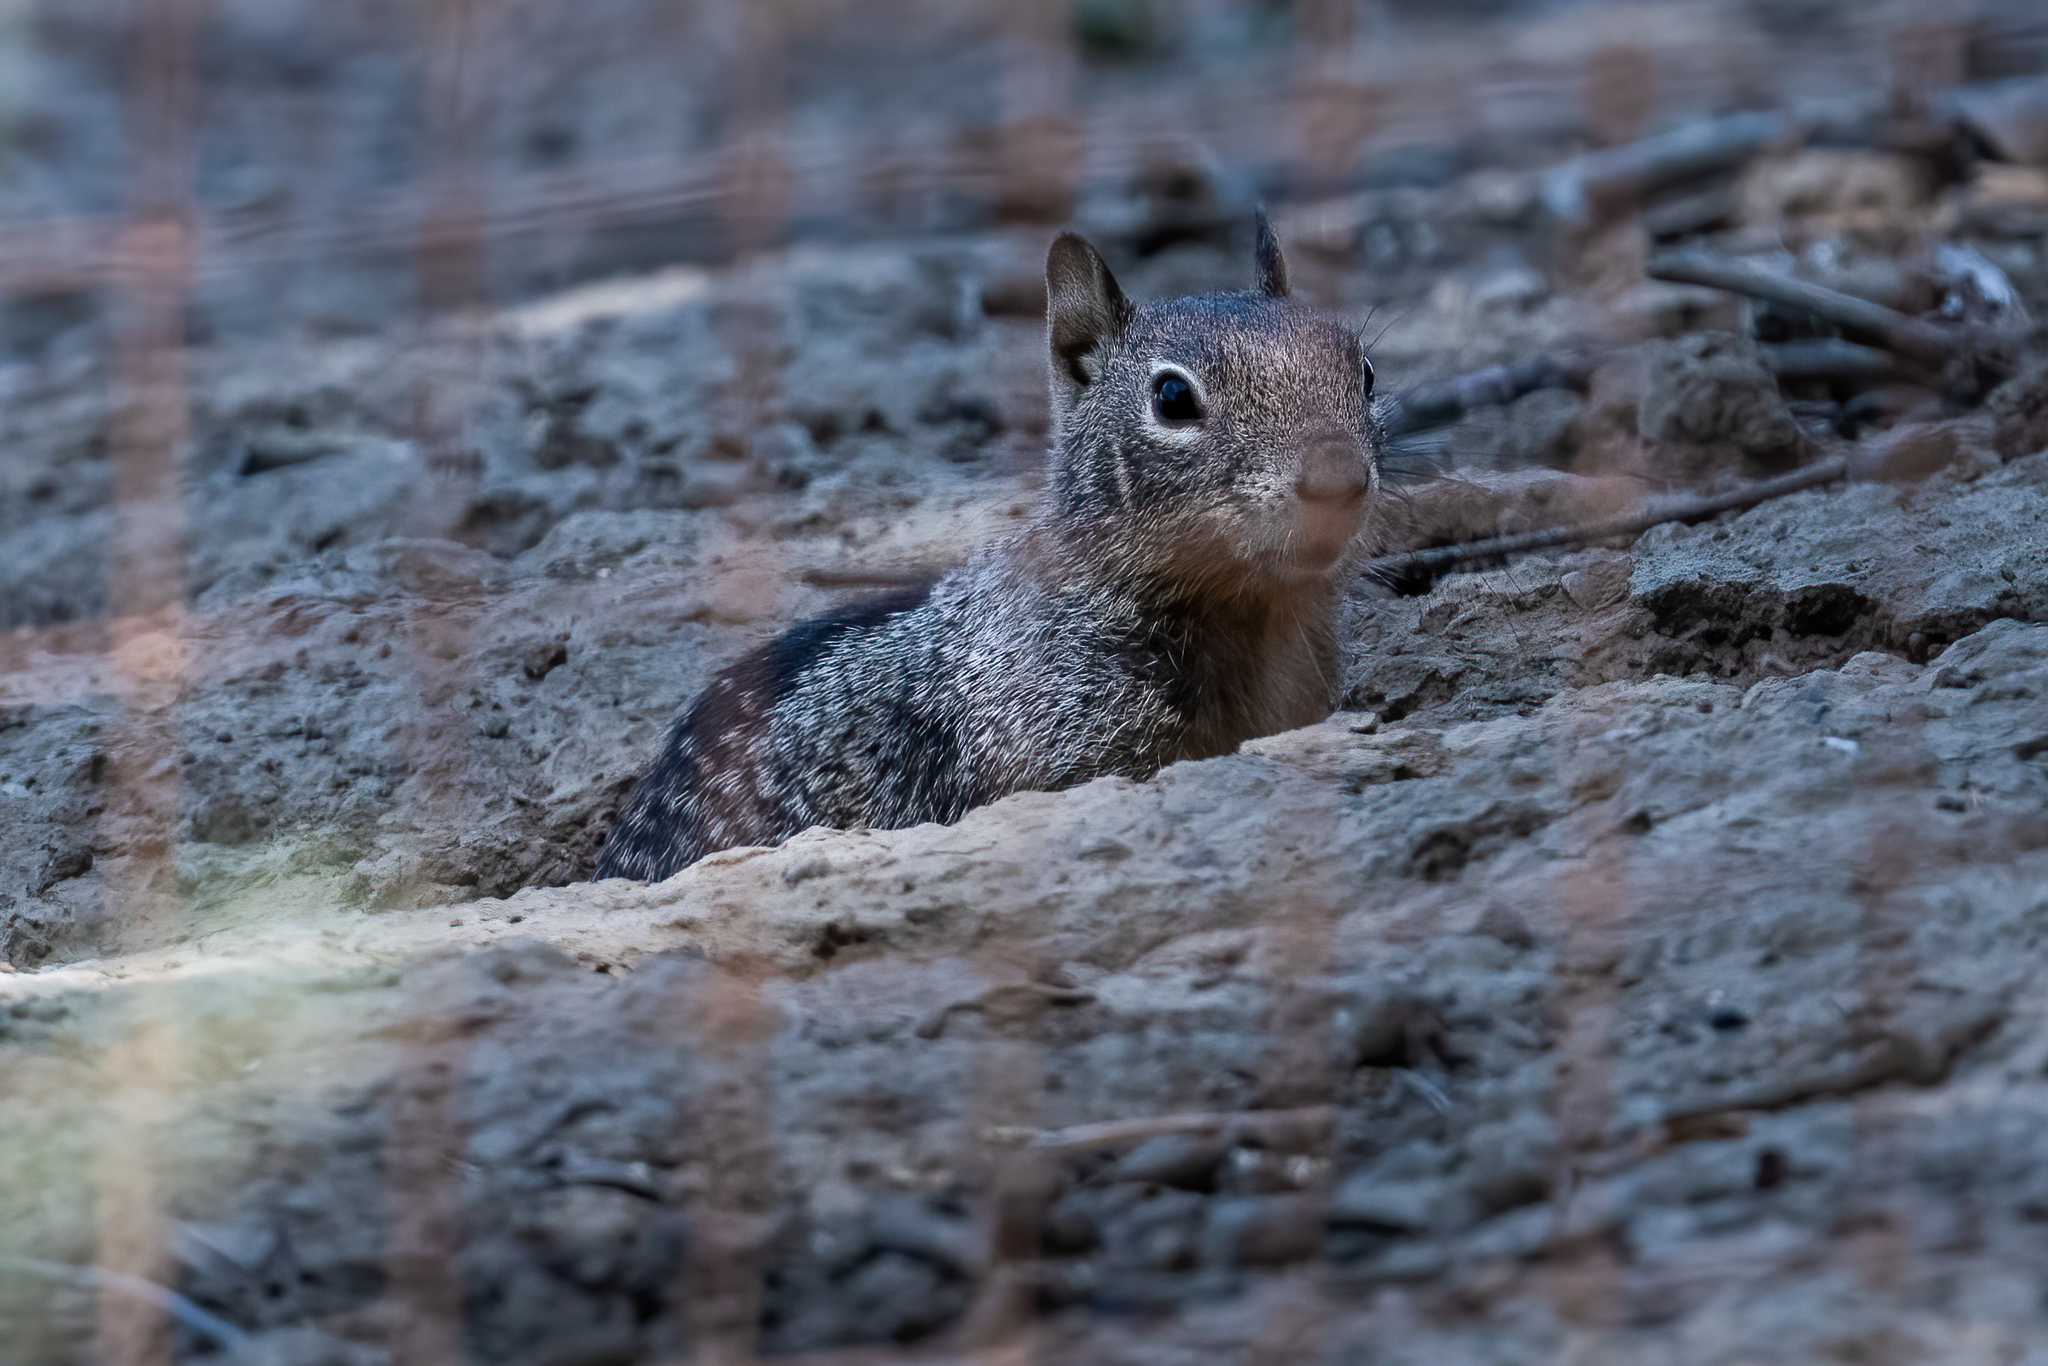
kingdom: Animalia
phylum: Chordata
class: Mammalia
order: Rodentia
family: Sciuridae
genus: Otospermophilus
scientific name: Otospermophilus beecheyi
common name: California ground squirrel
